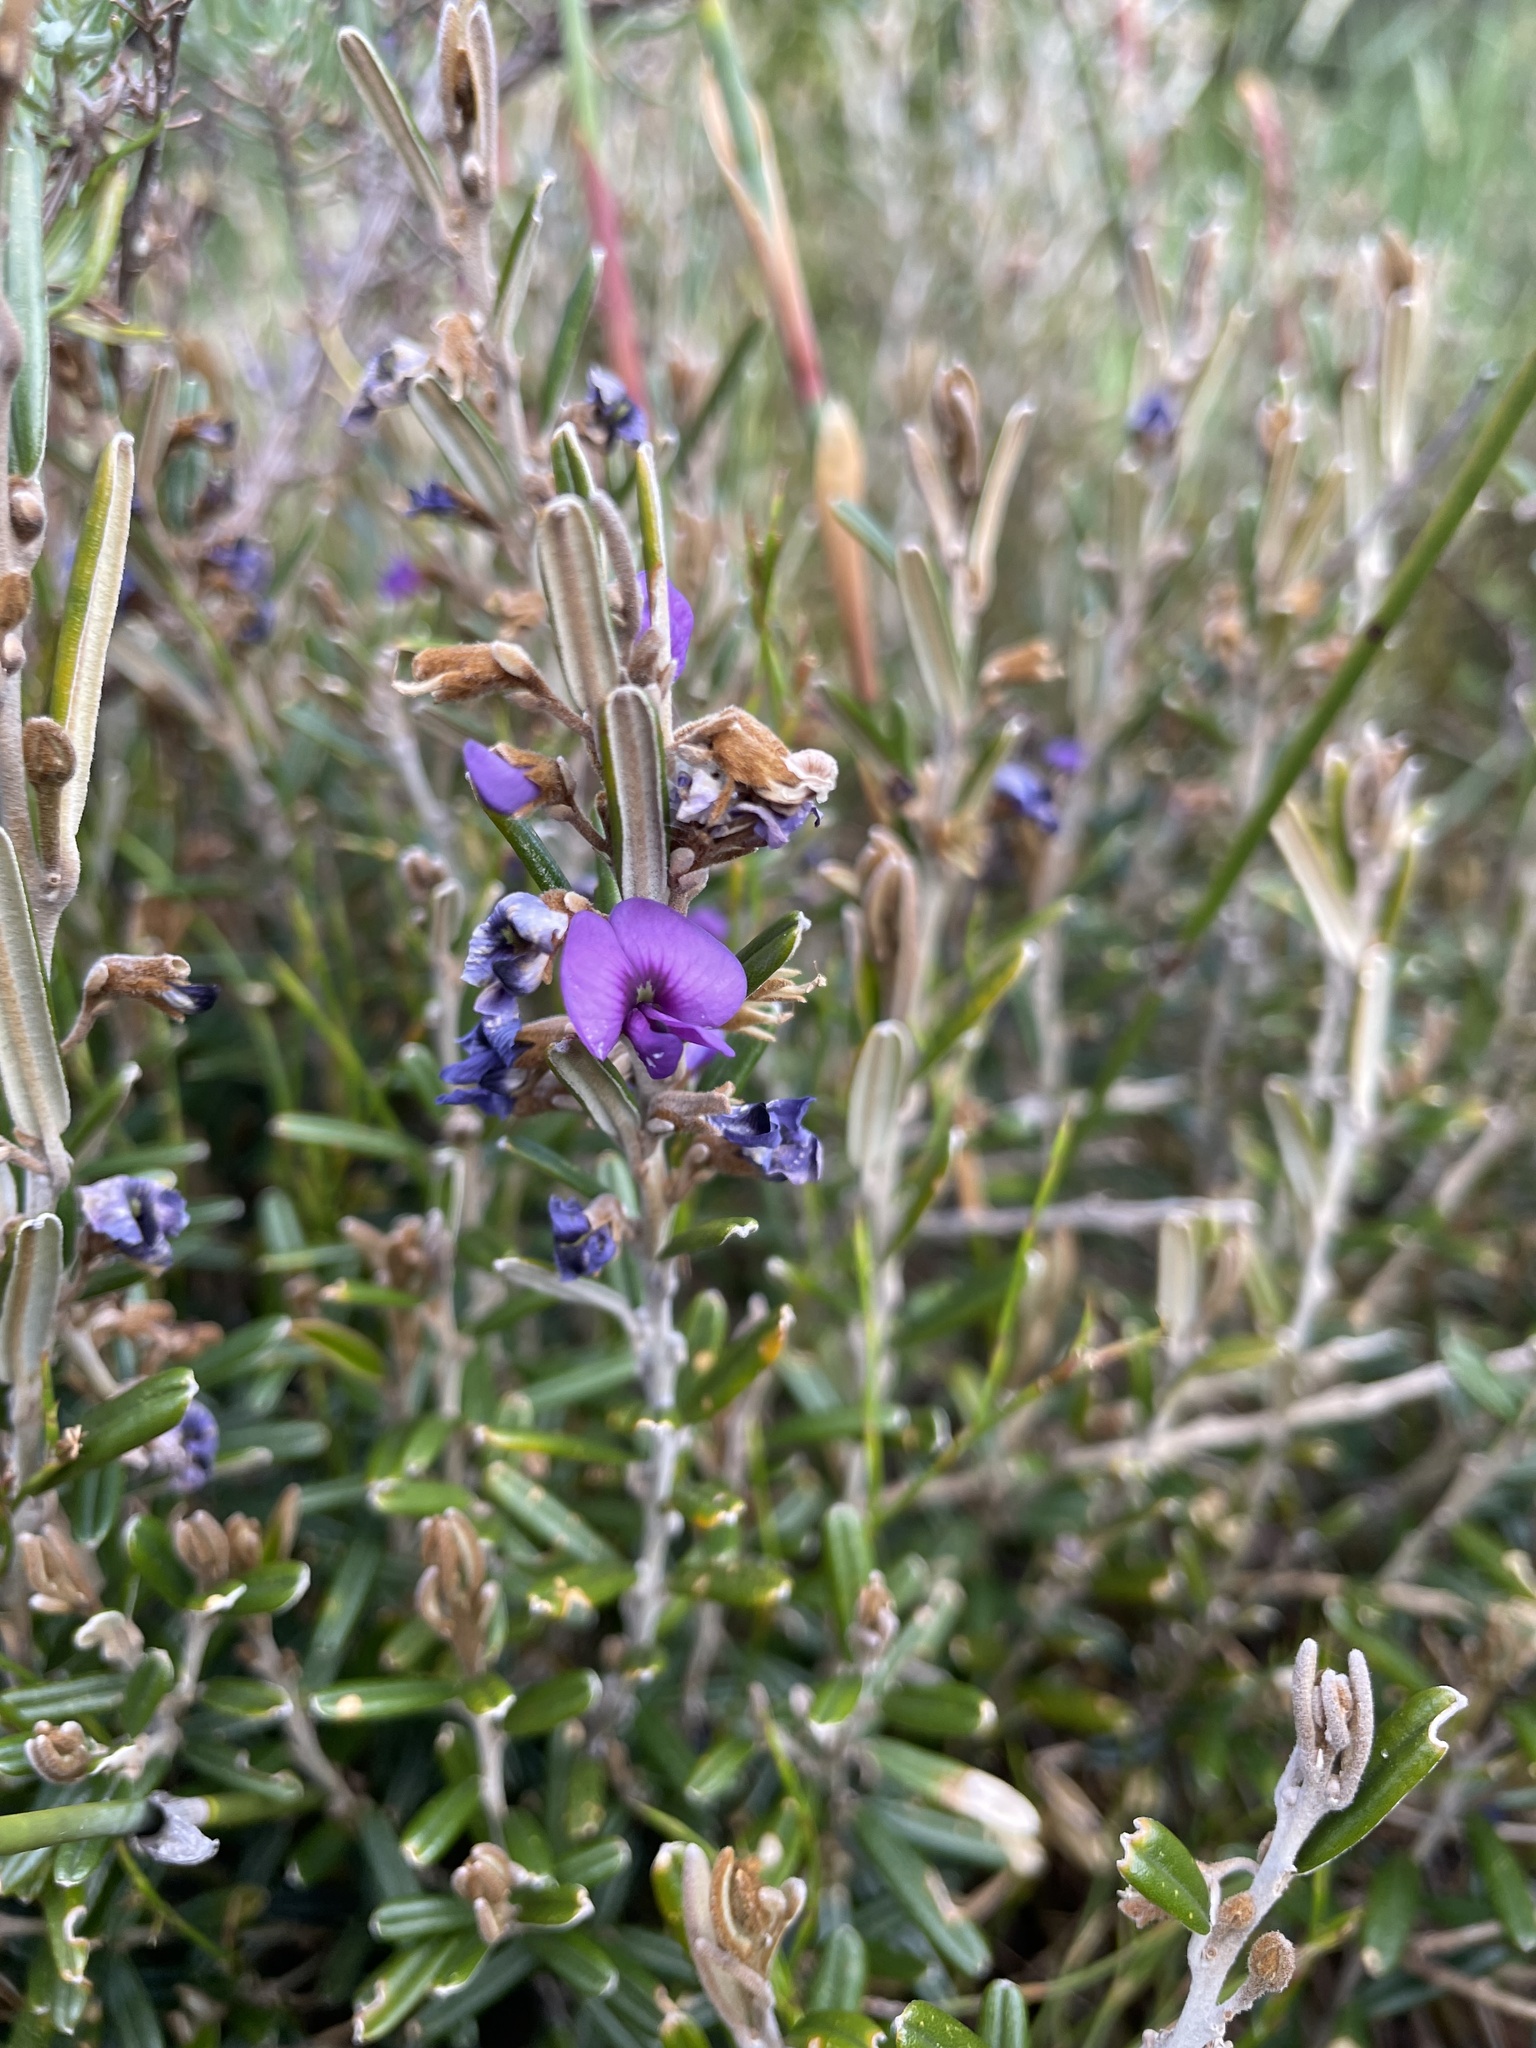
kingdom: Plantae
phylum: Tracheophyta
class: Magnoliopsida
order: Fabales
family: Fabaceae
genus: Hovea
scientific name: Hovea montana
